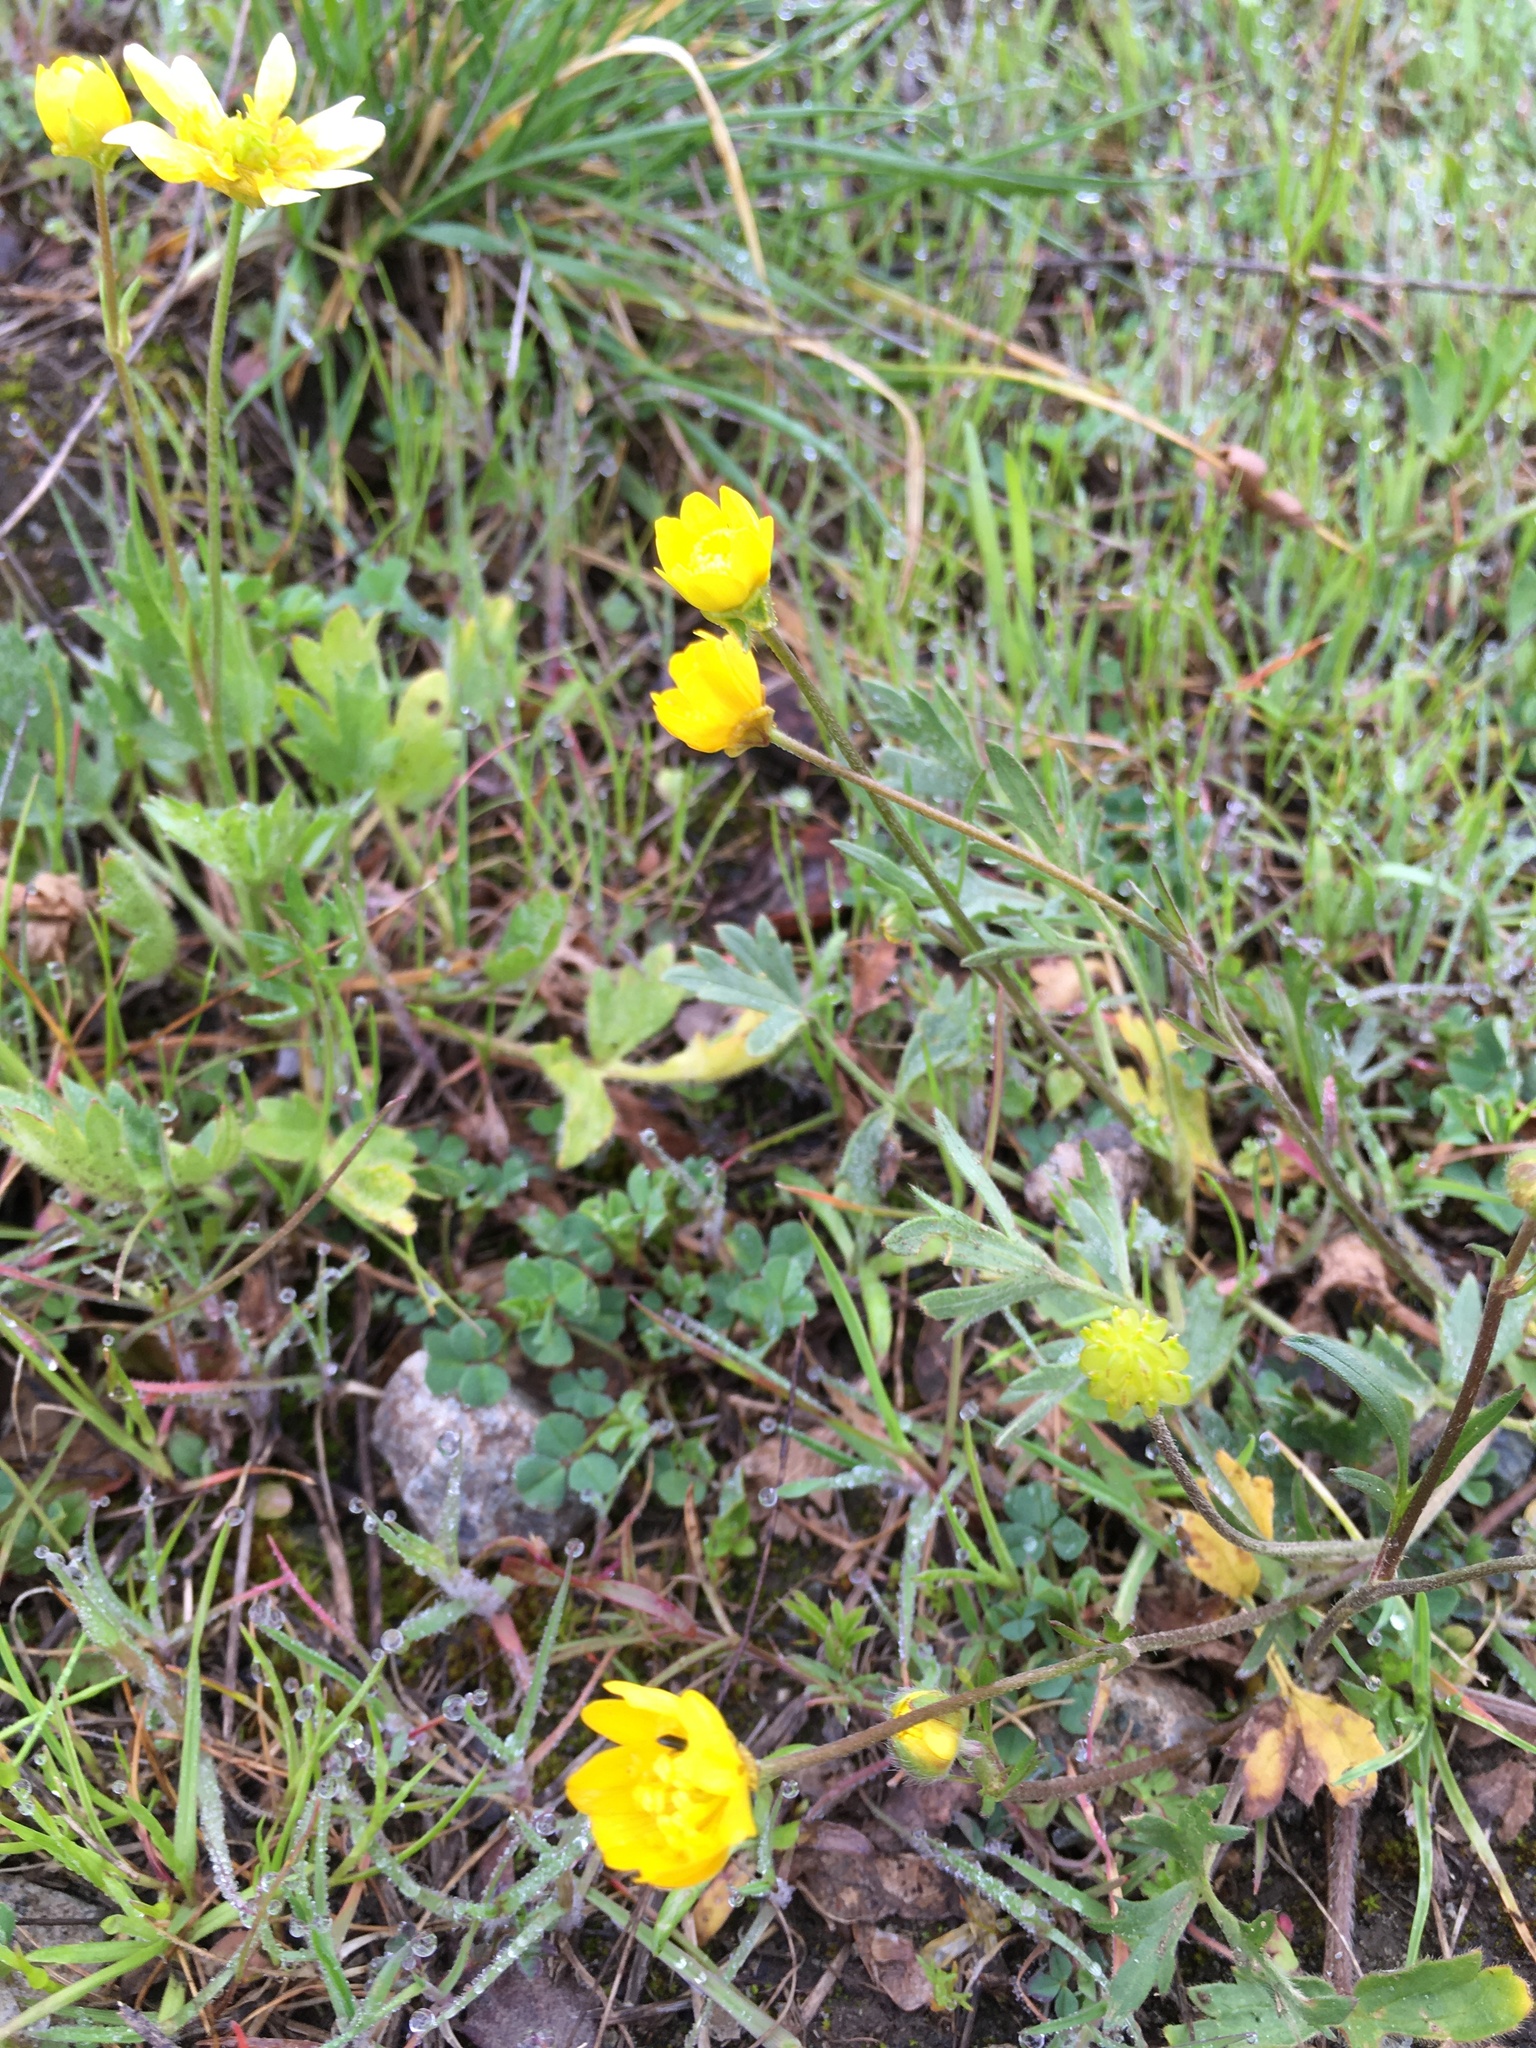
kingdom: Plantae
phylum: Tracheophyta
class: Magnoliopsida
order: Ranunculales
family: Ranunculaceae
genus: Ranunculus
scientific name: Ranunculus californicus
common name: California buttercup
